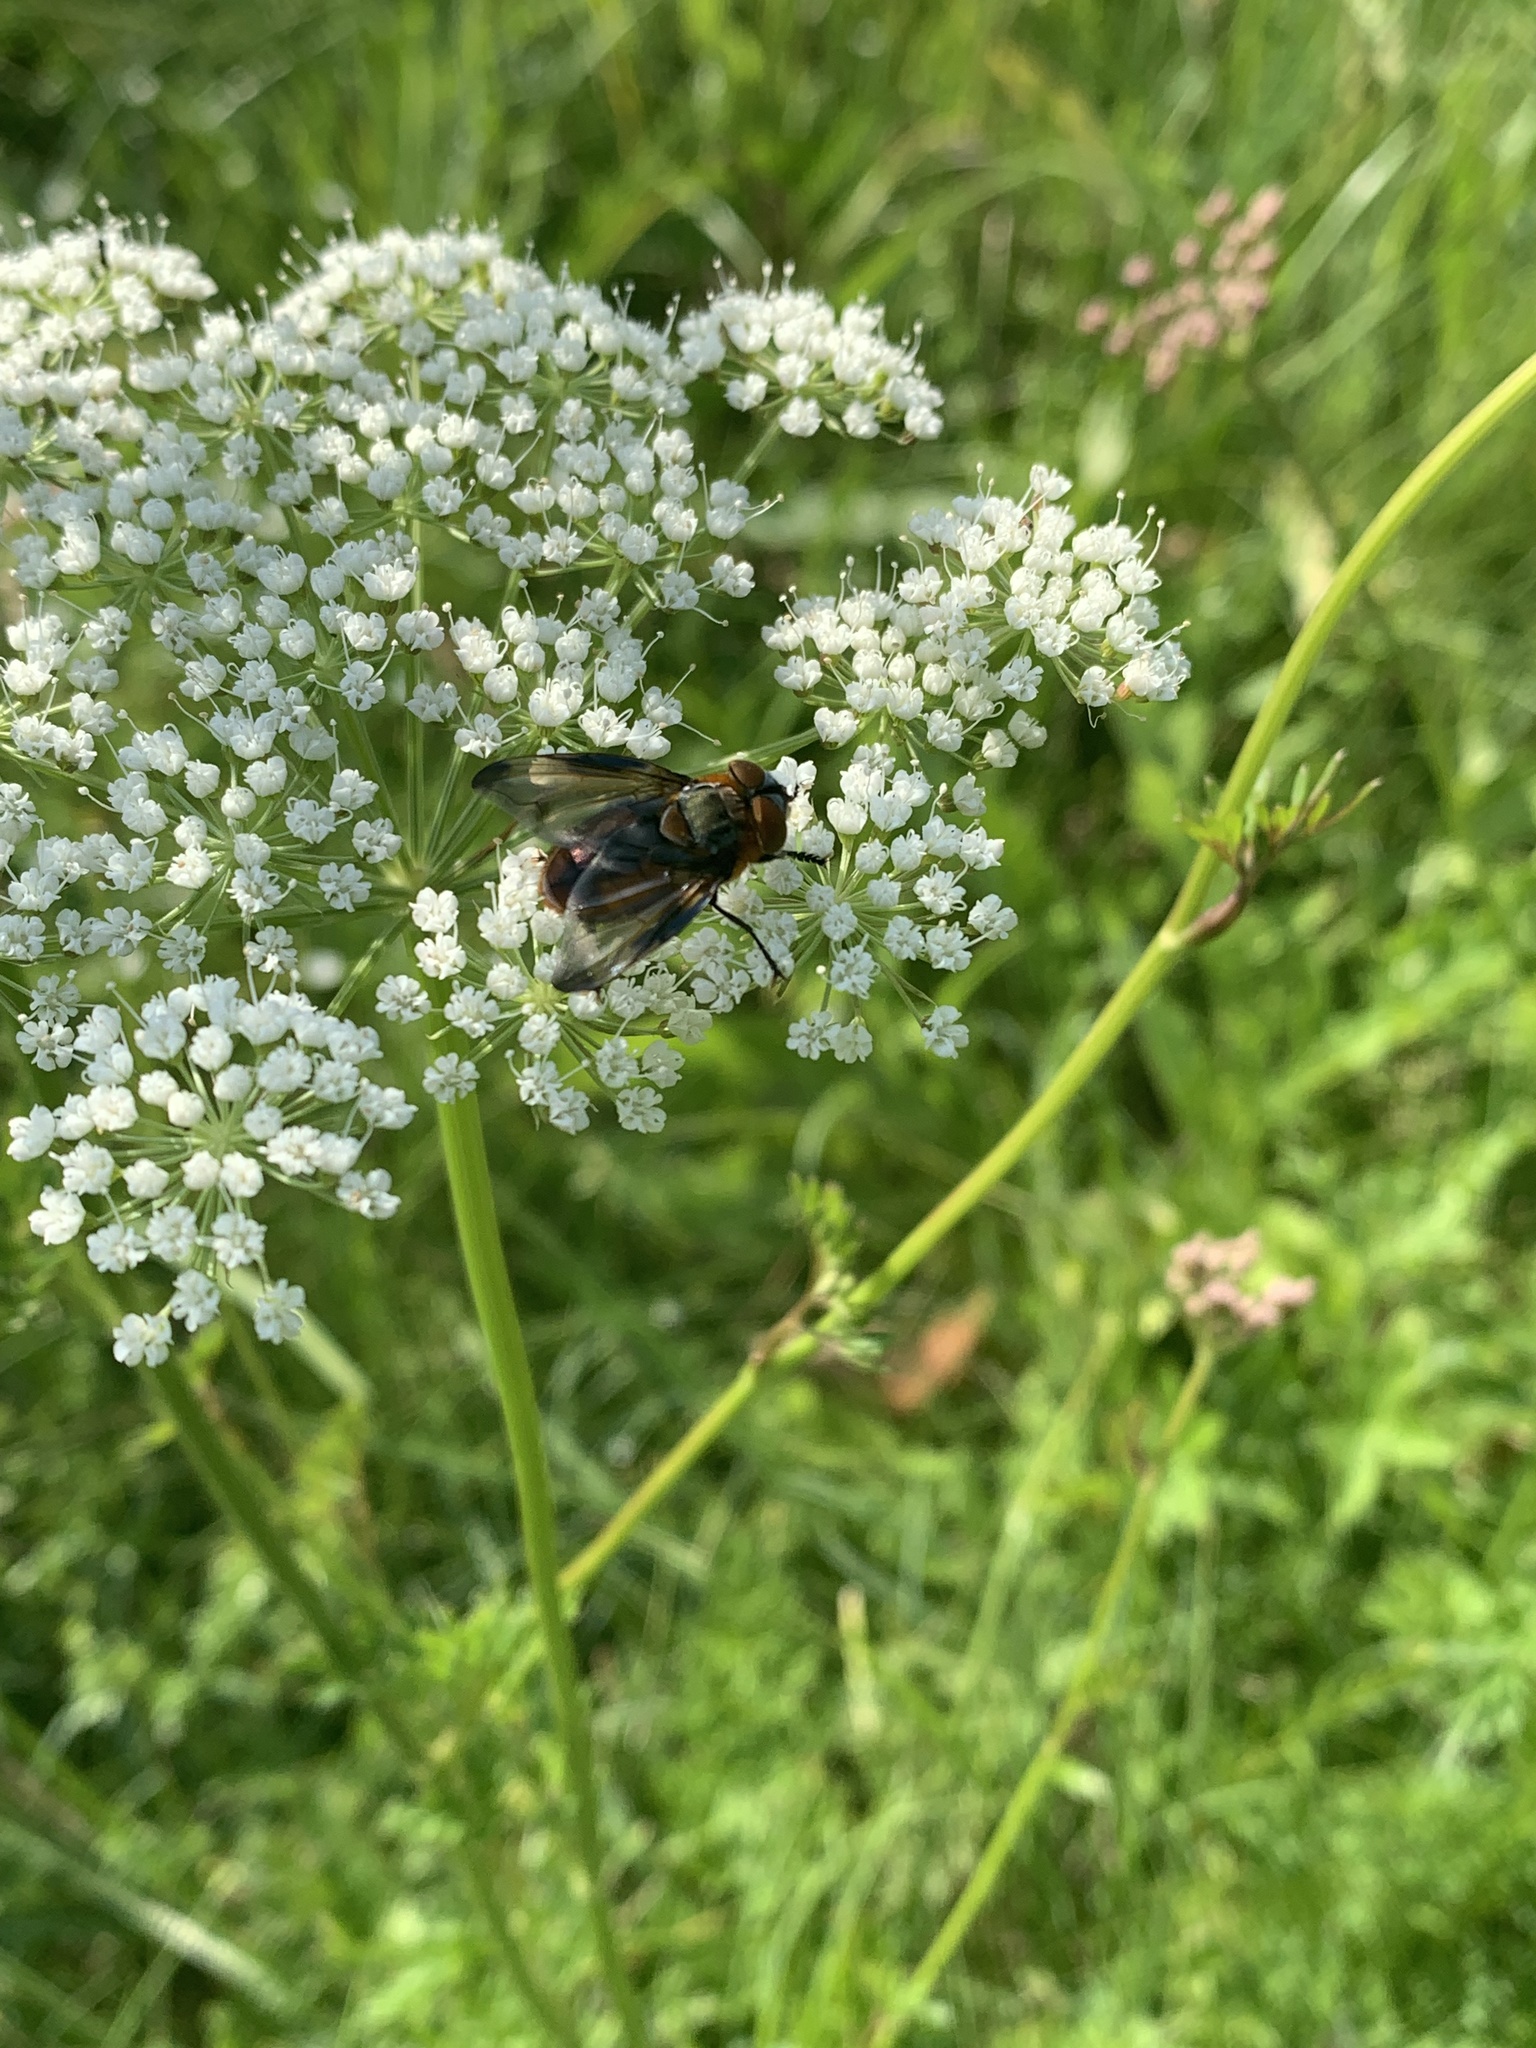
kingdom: Animalia
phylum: Arthropoda
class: Insecta
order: Diptera
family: Tachinidae
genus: Phasia
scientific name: Phasia hemiptera
